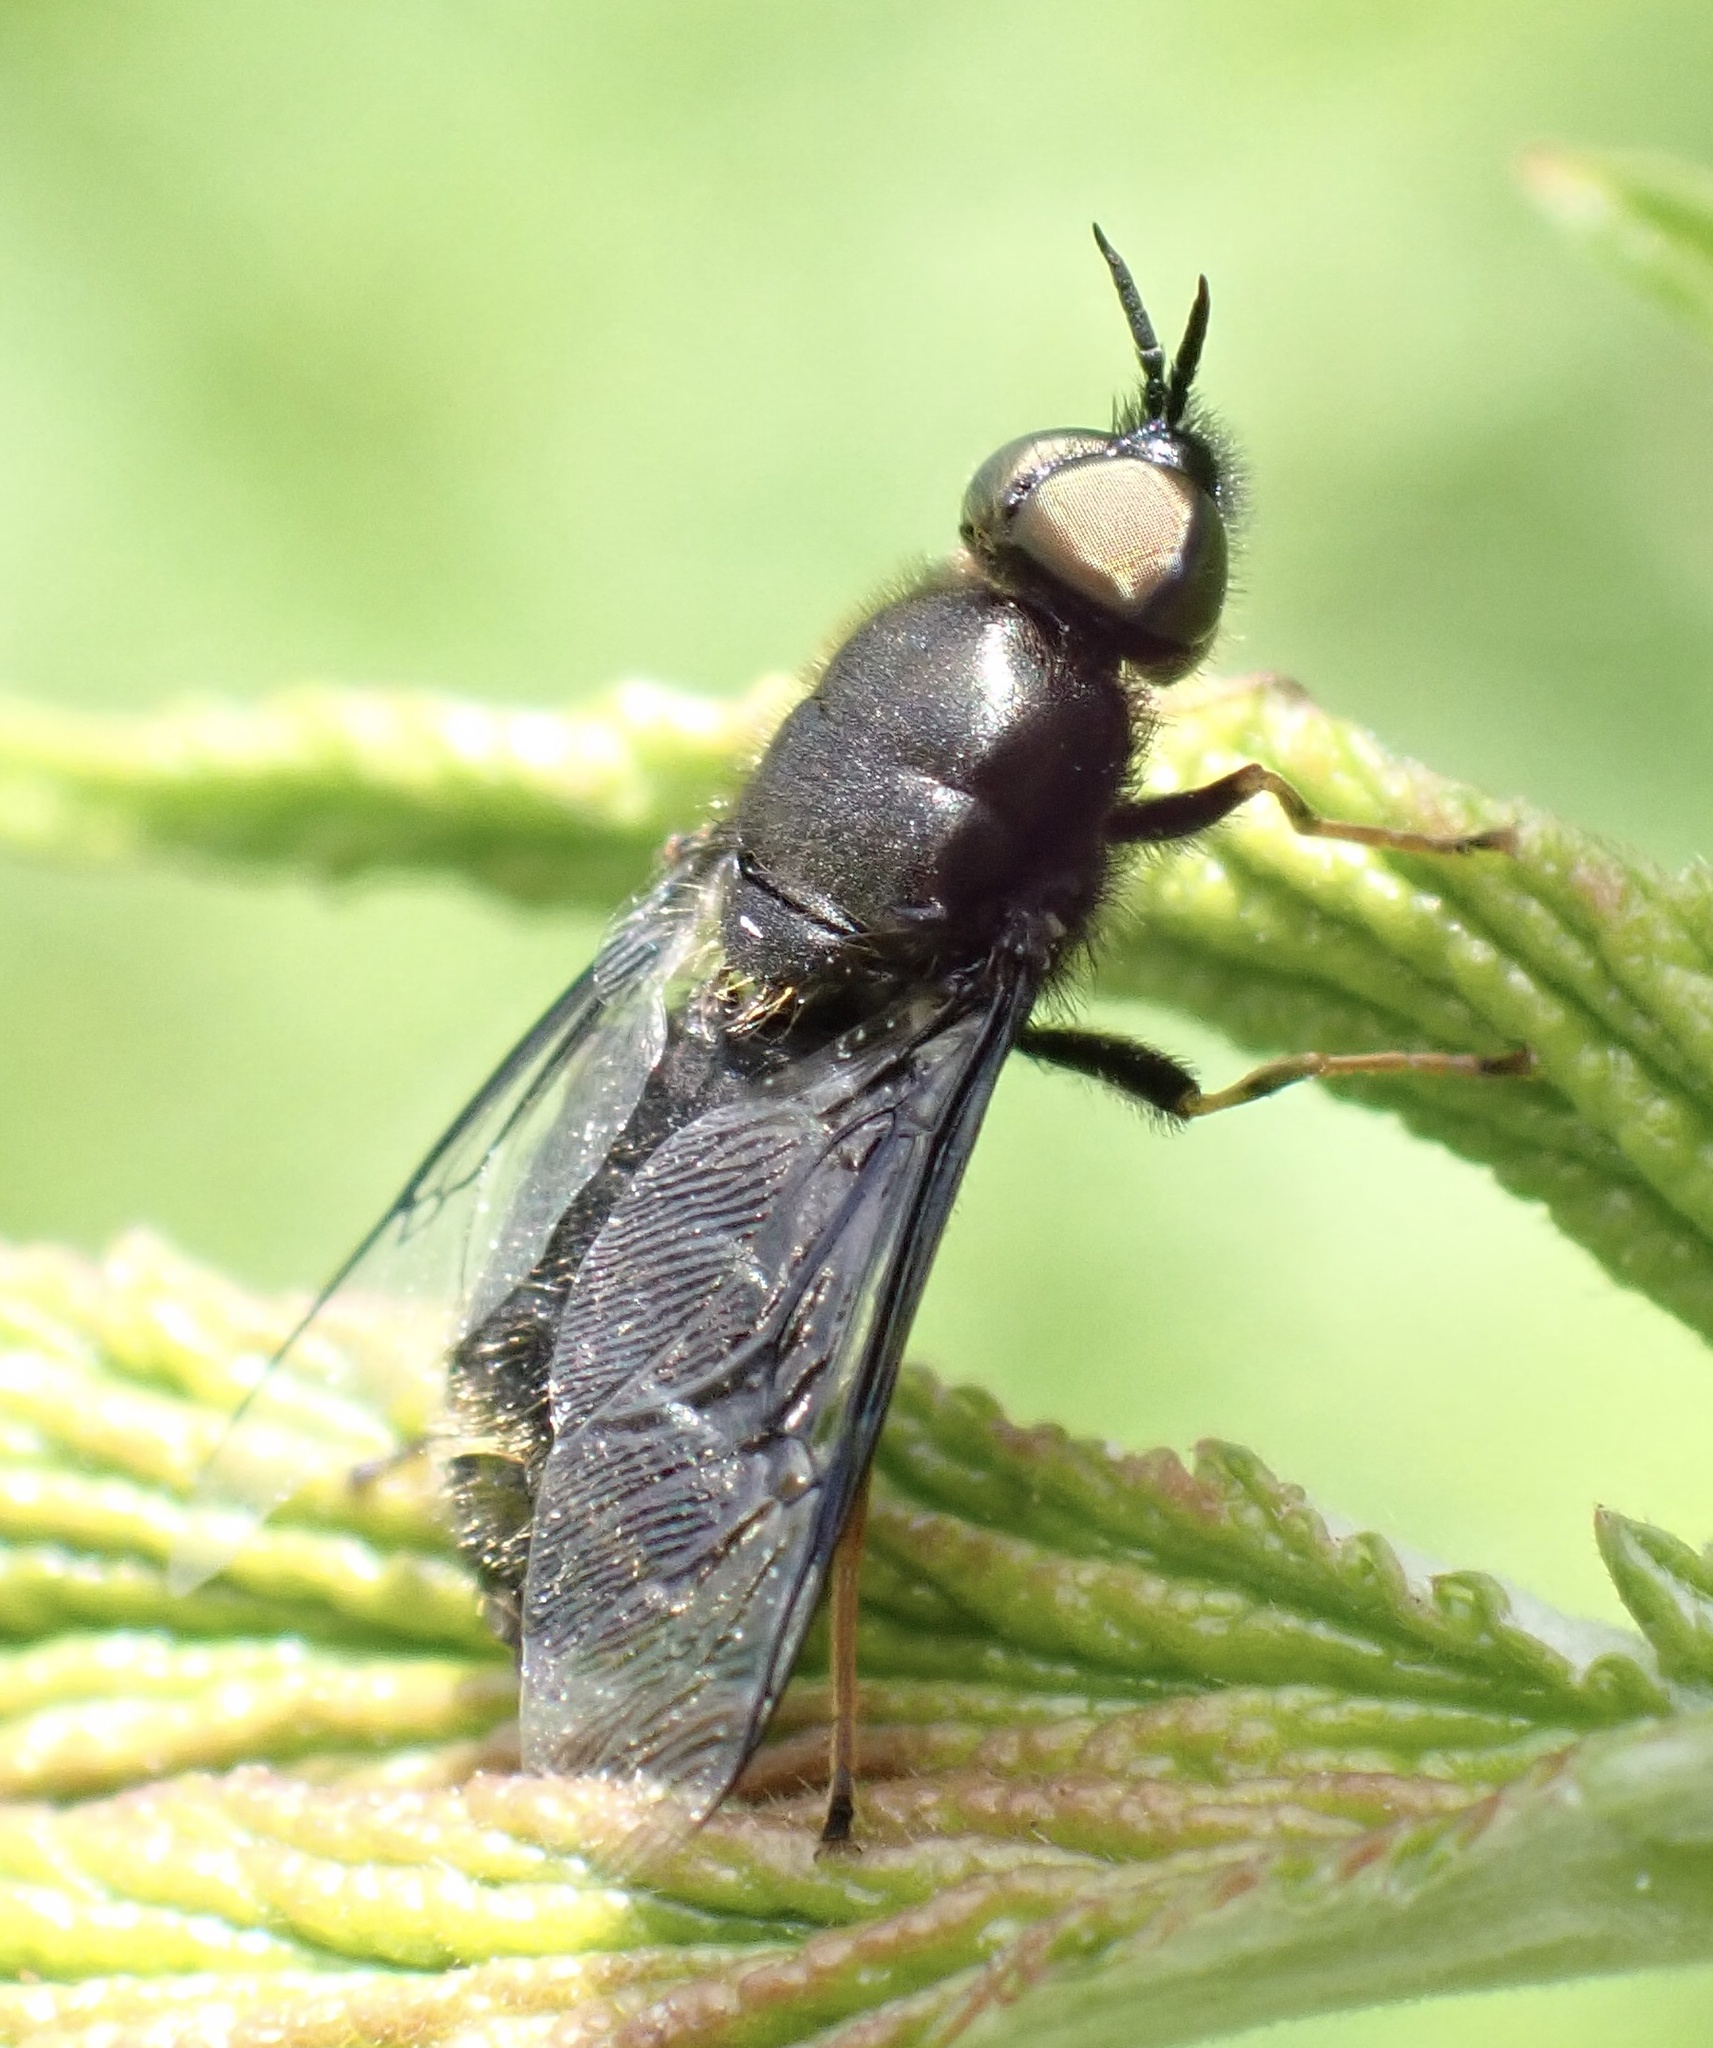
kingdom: Animalia
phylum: Arthropoda
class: Insecta
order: Diptera
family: Stratiomyidae
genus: Odontomyia
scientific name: Odontomyia tigrina
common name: Black colonel
